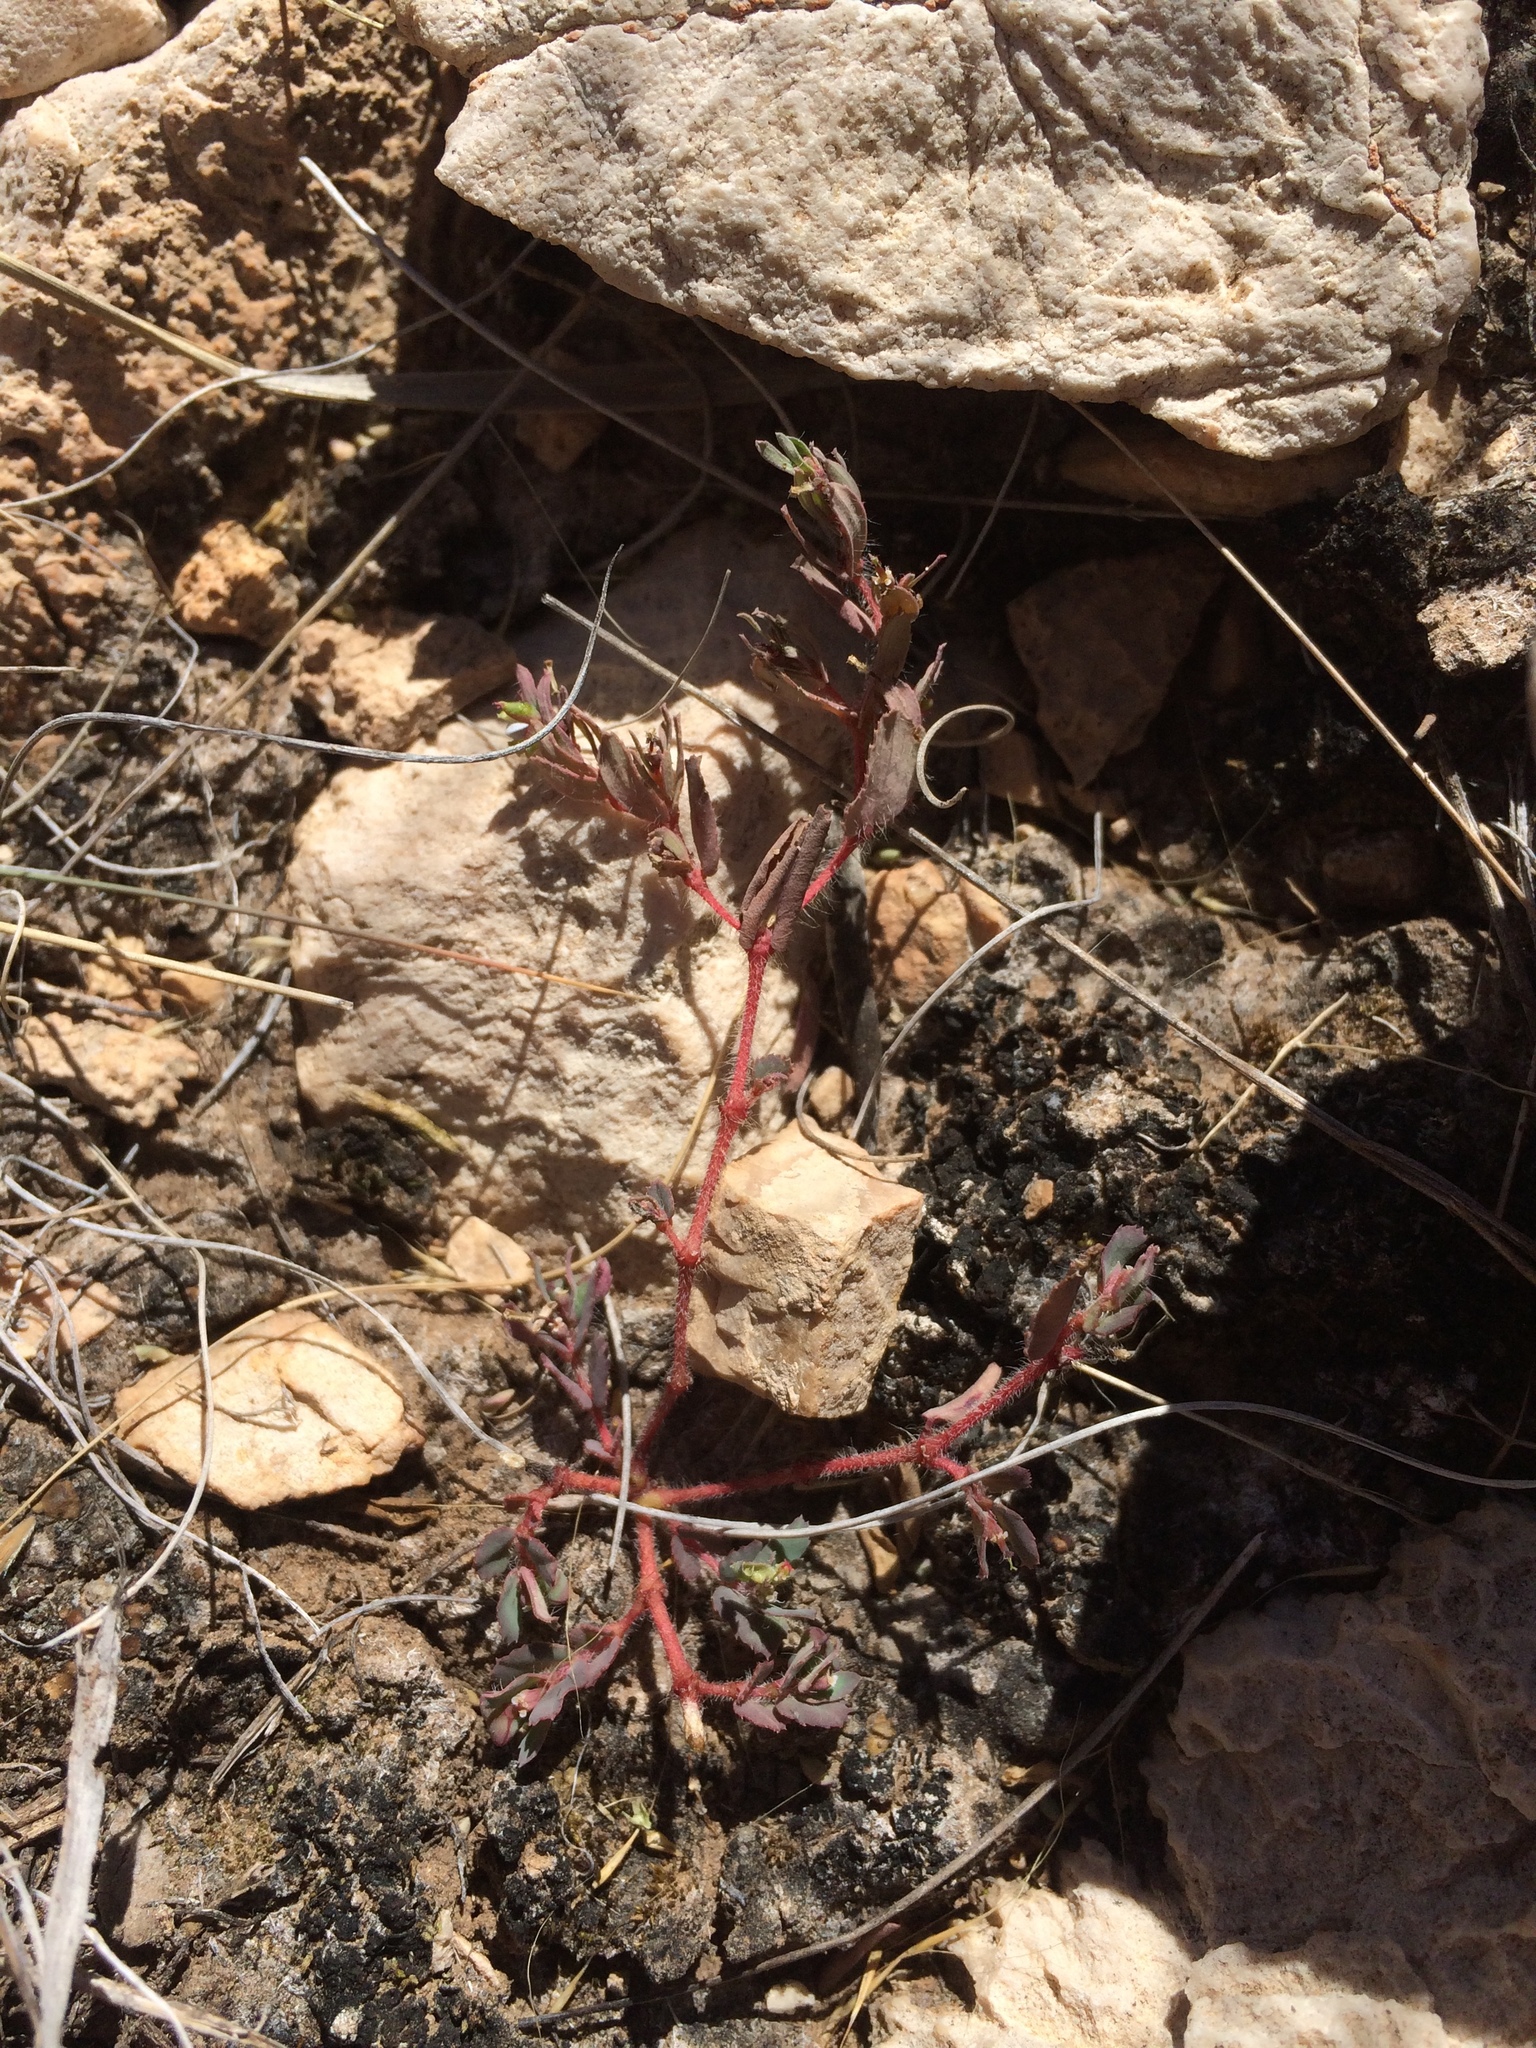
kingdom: Plantae
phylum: Tracheophyta
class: Magnoliopsida
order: Malpighiales
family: Euphorbiaceae
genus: Euphorbia
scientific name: Euphorbia serrula
